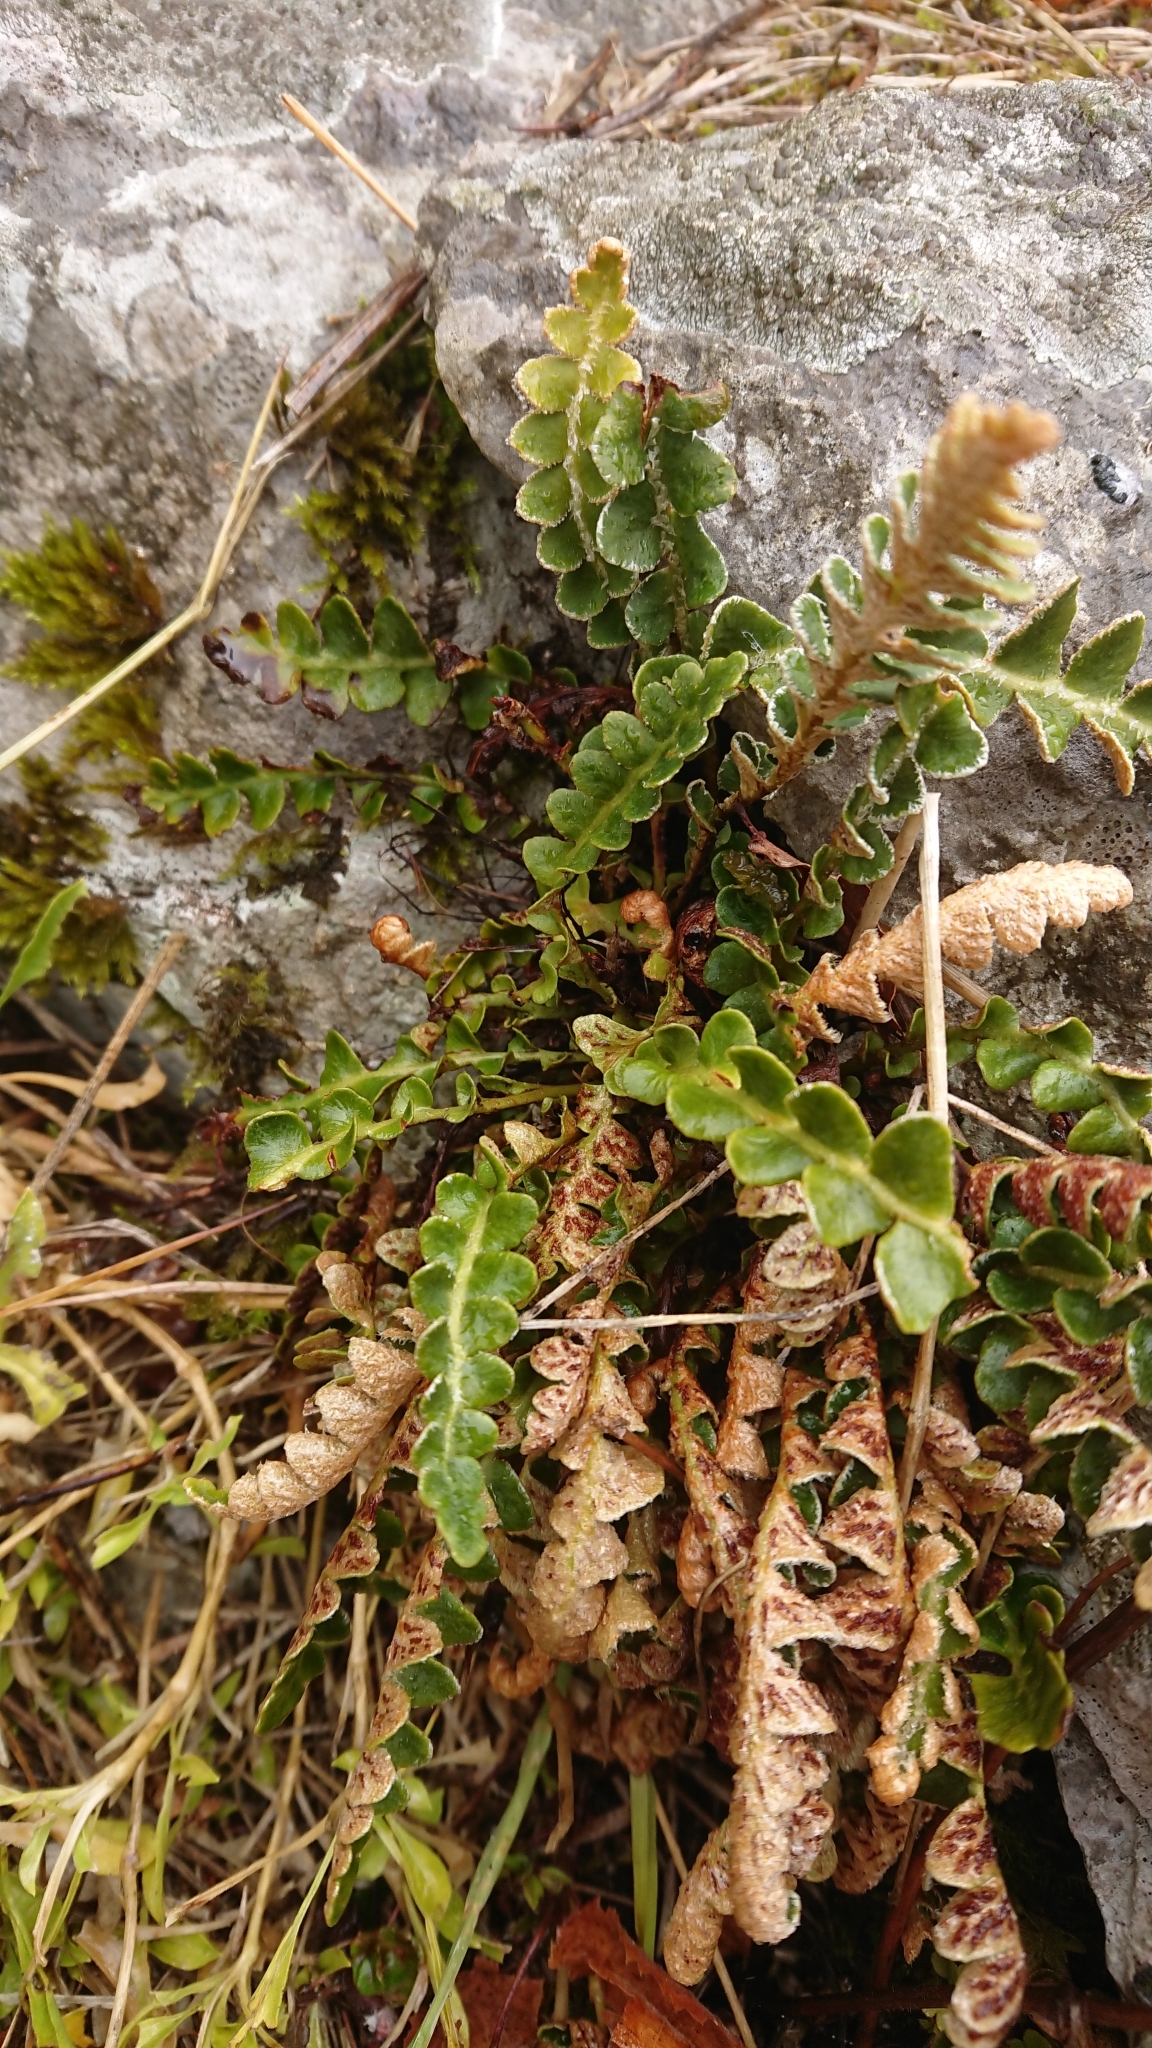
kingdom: Plantae
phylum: Tracheophyta
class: Polypodiopsida
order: Polypodiales
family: Aspleniaceae
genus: Asplenium
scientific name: Asplenium ceterach
